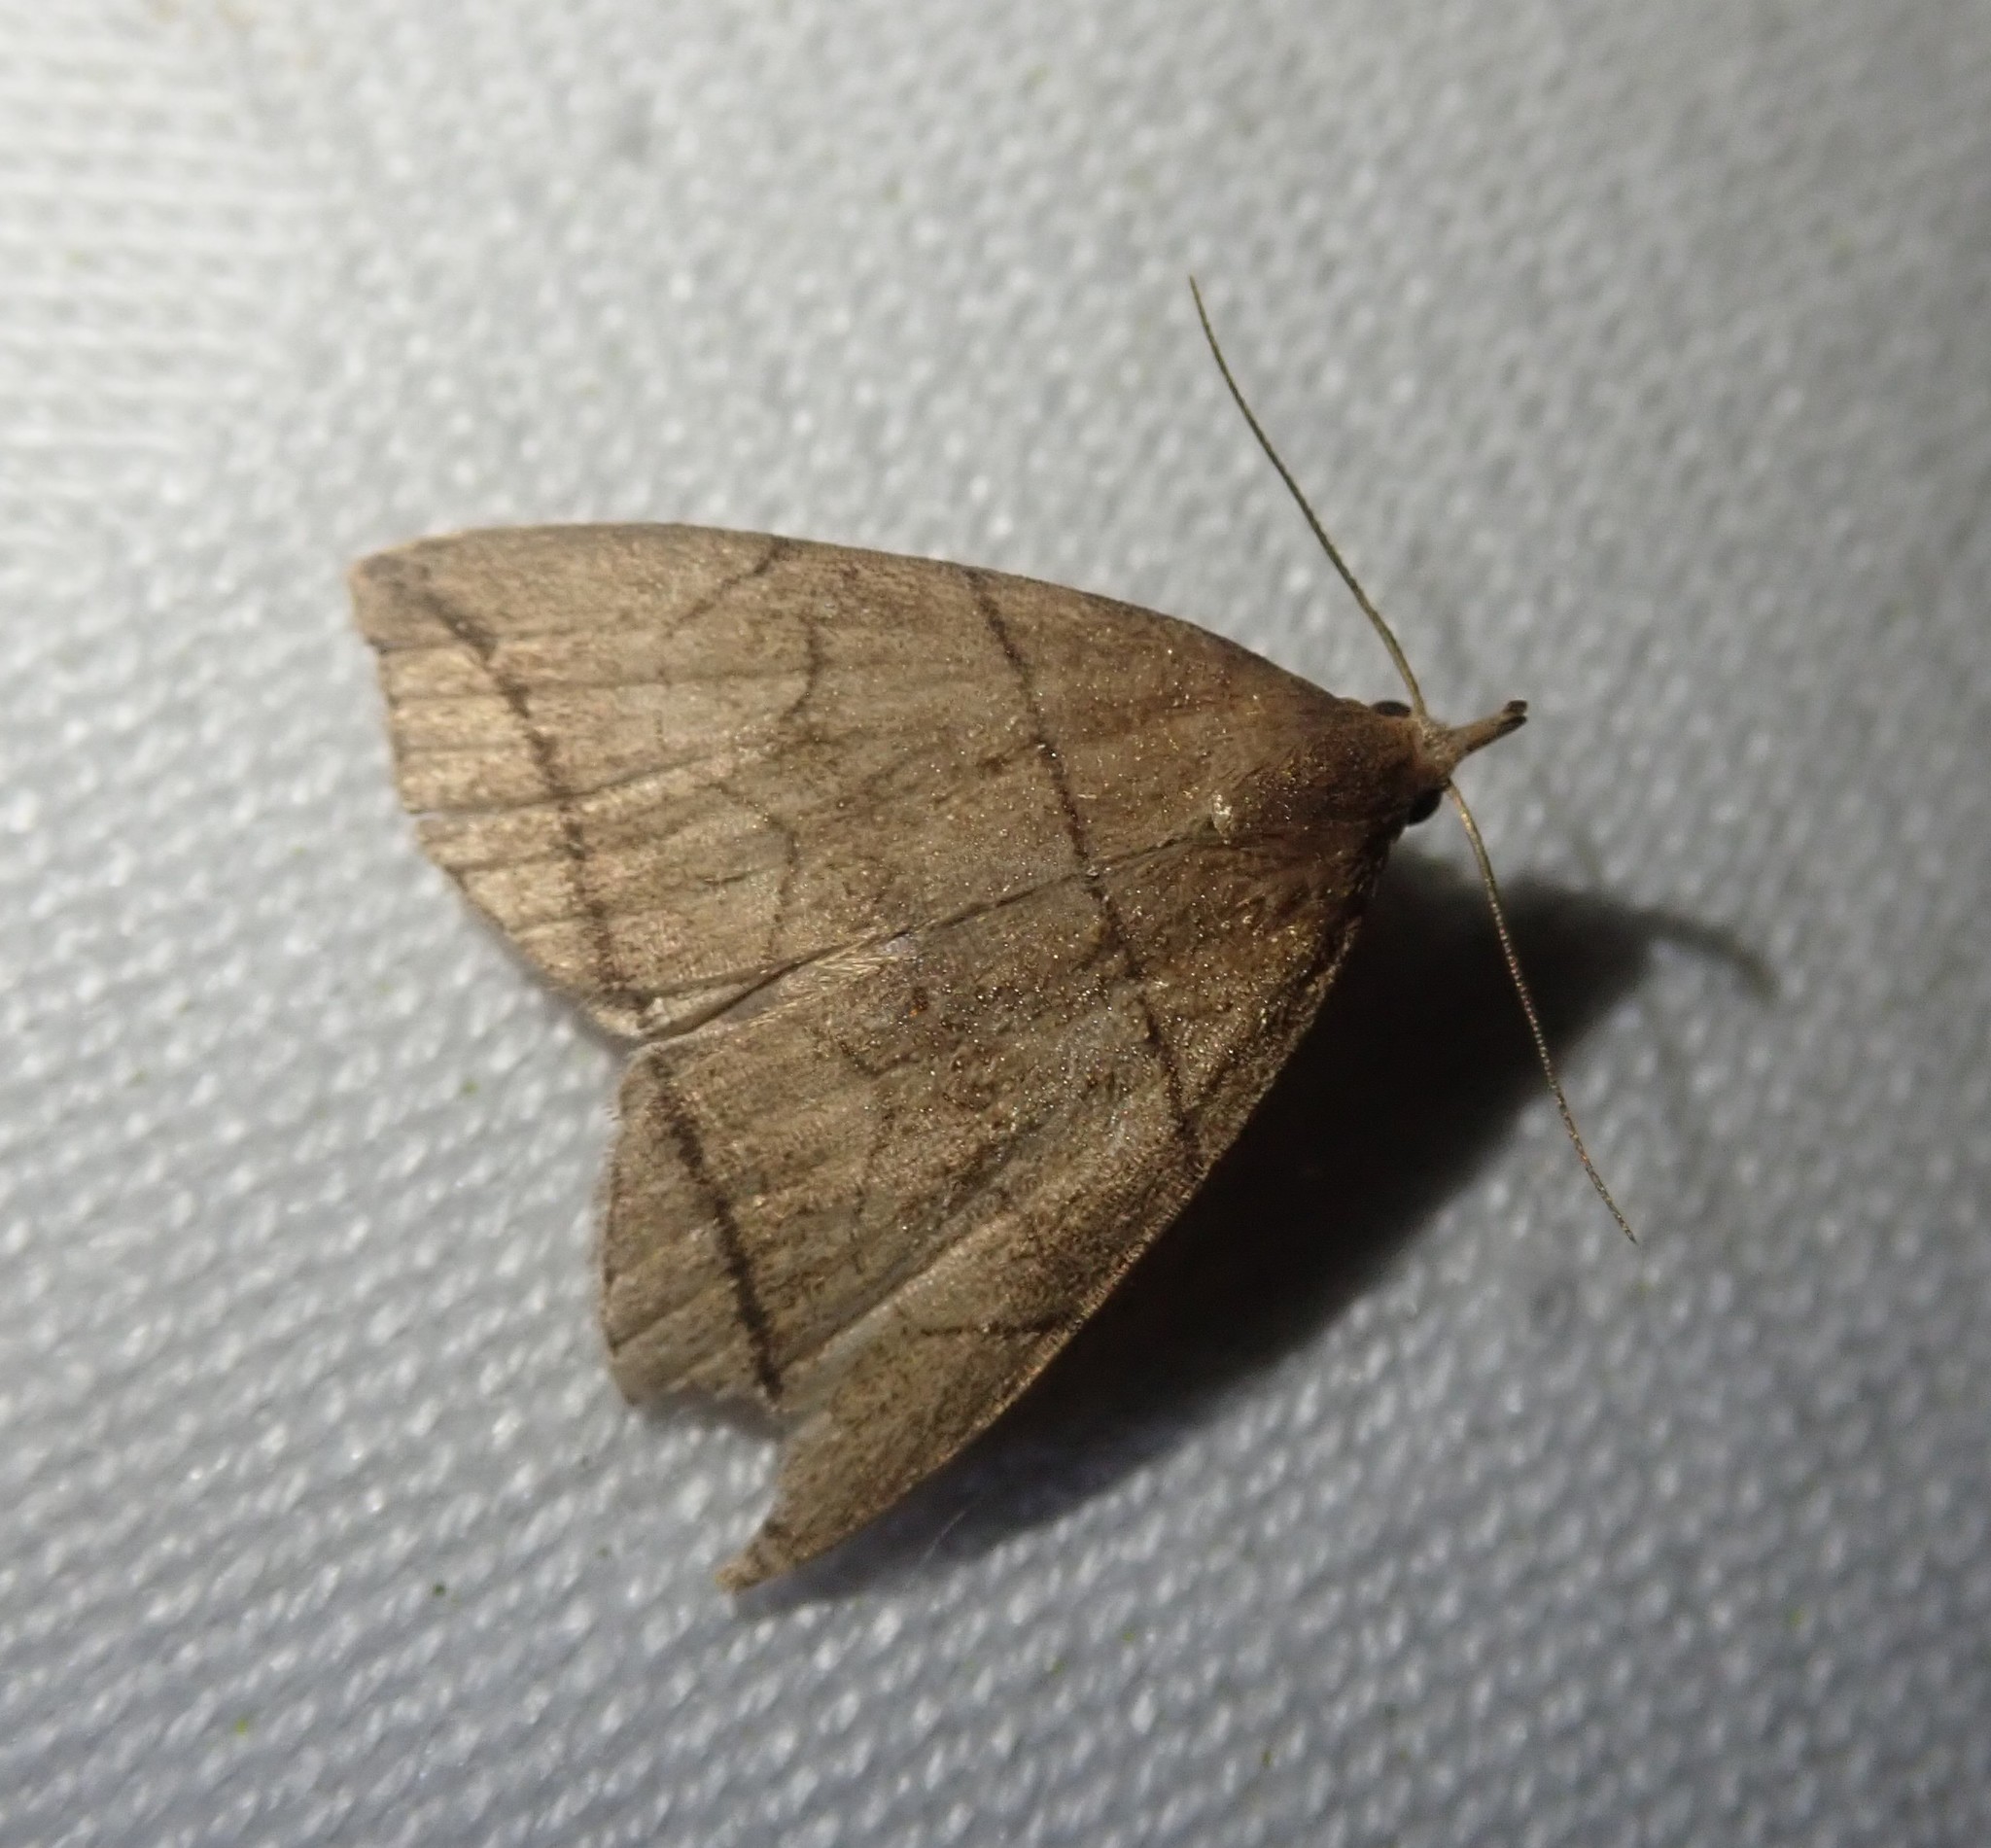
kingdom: Animalia
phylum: Arthropoda
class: Insecta
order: Lepidoptera
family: Erebidae
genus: Herminia
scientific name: Herminia grisealis
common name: Small fan-foot
